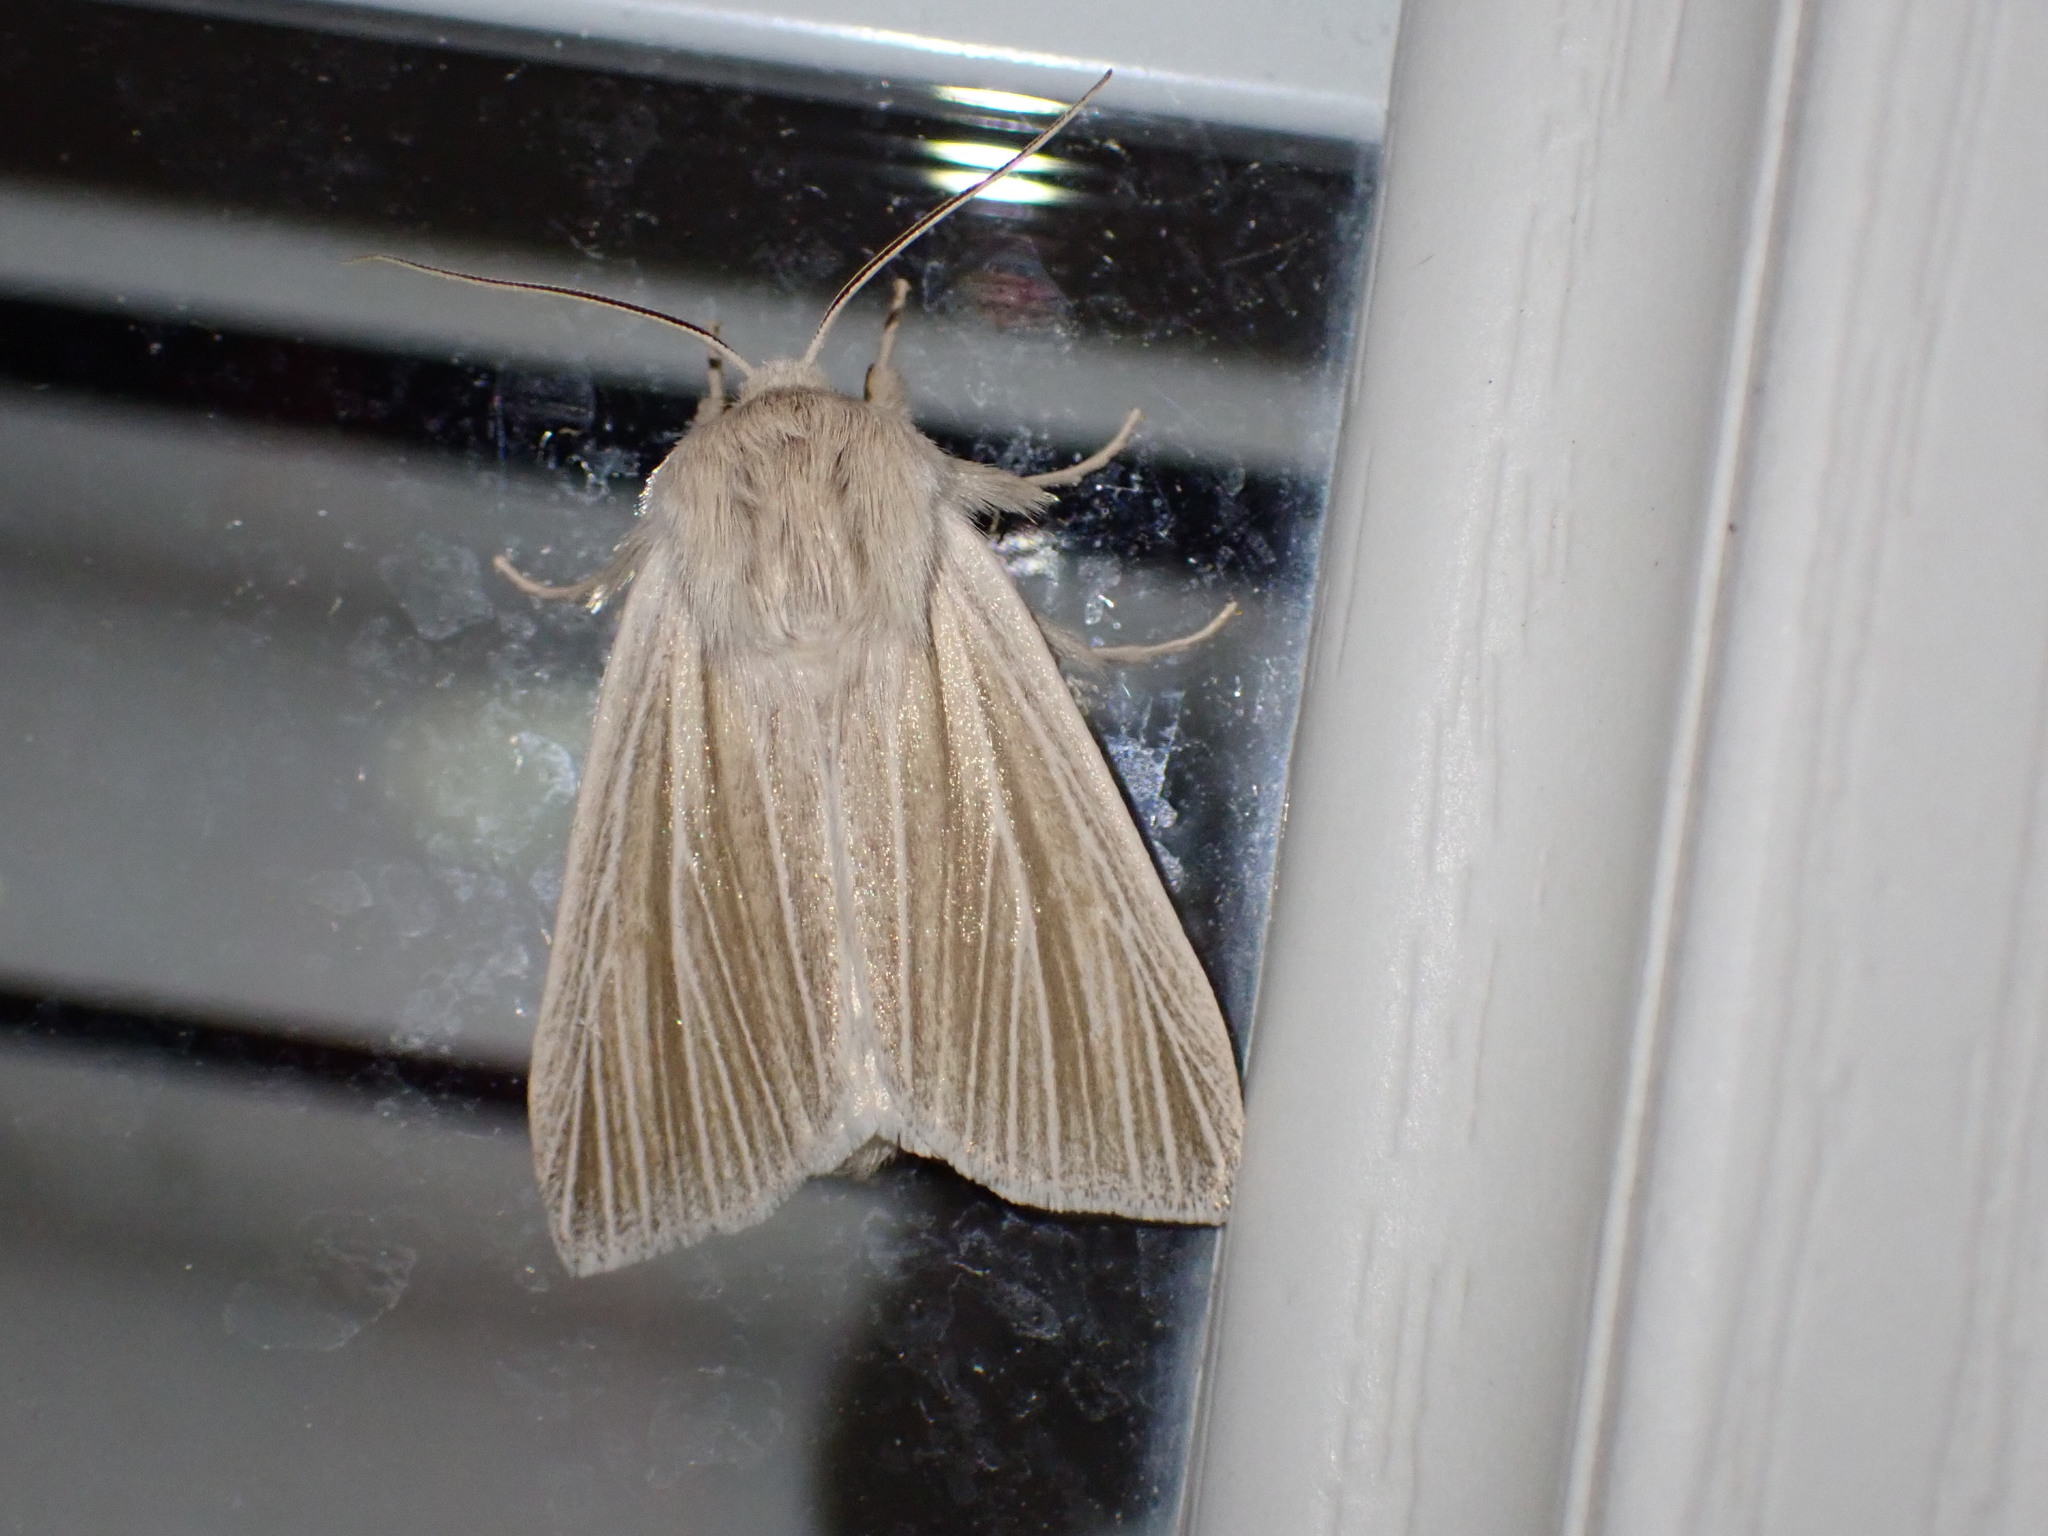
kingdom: Animalia
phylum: Arthropoda
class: Insecta
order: Lepidoptera
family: Noctuidae
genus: Acronicta
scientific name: Acronicta insularis
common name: Henry's marsh moth
